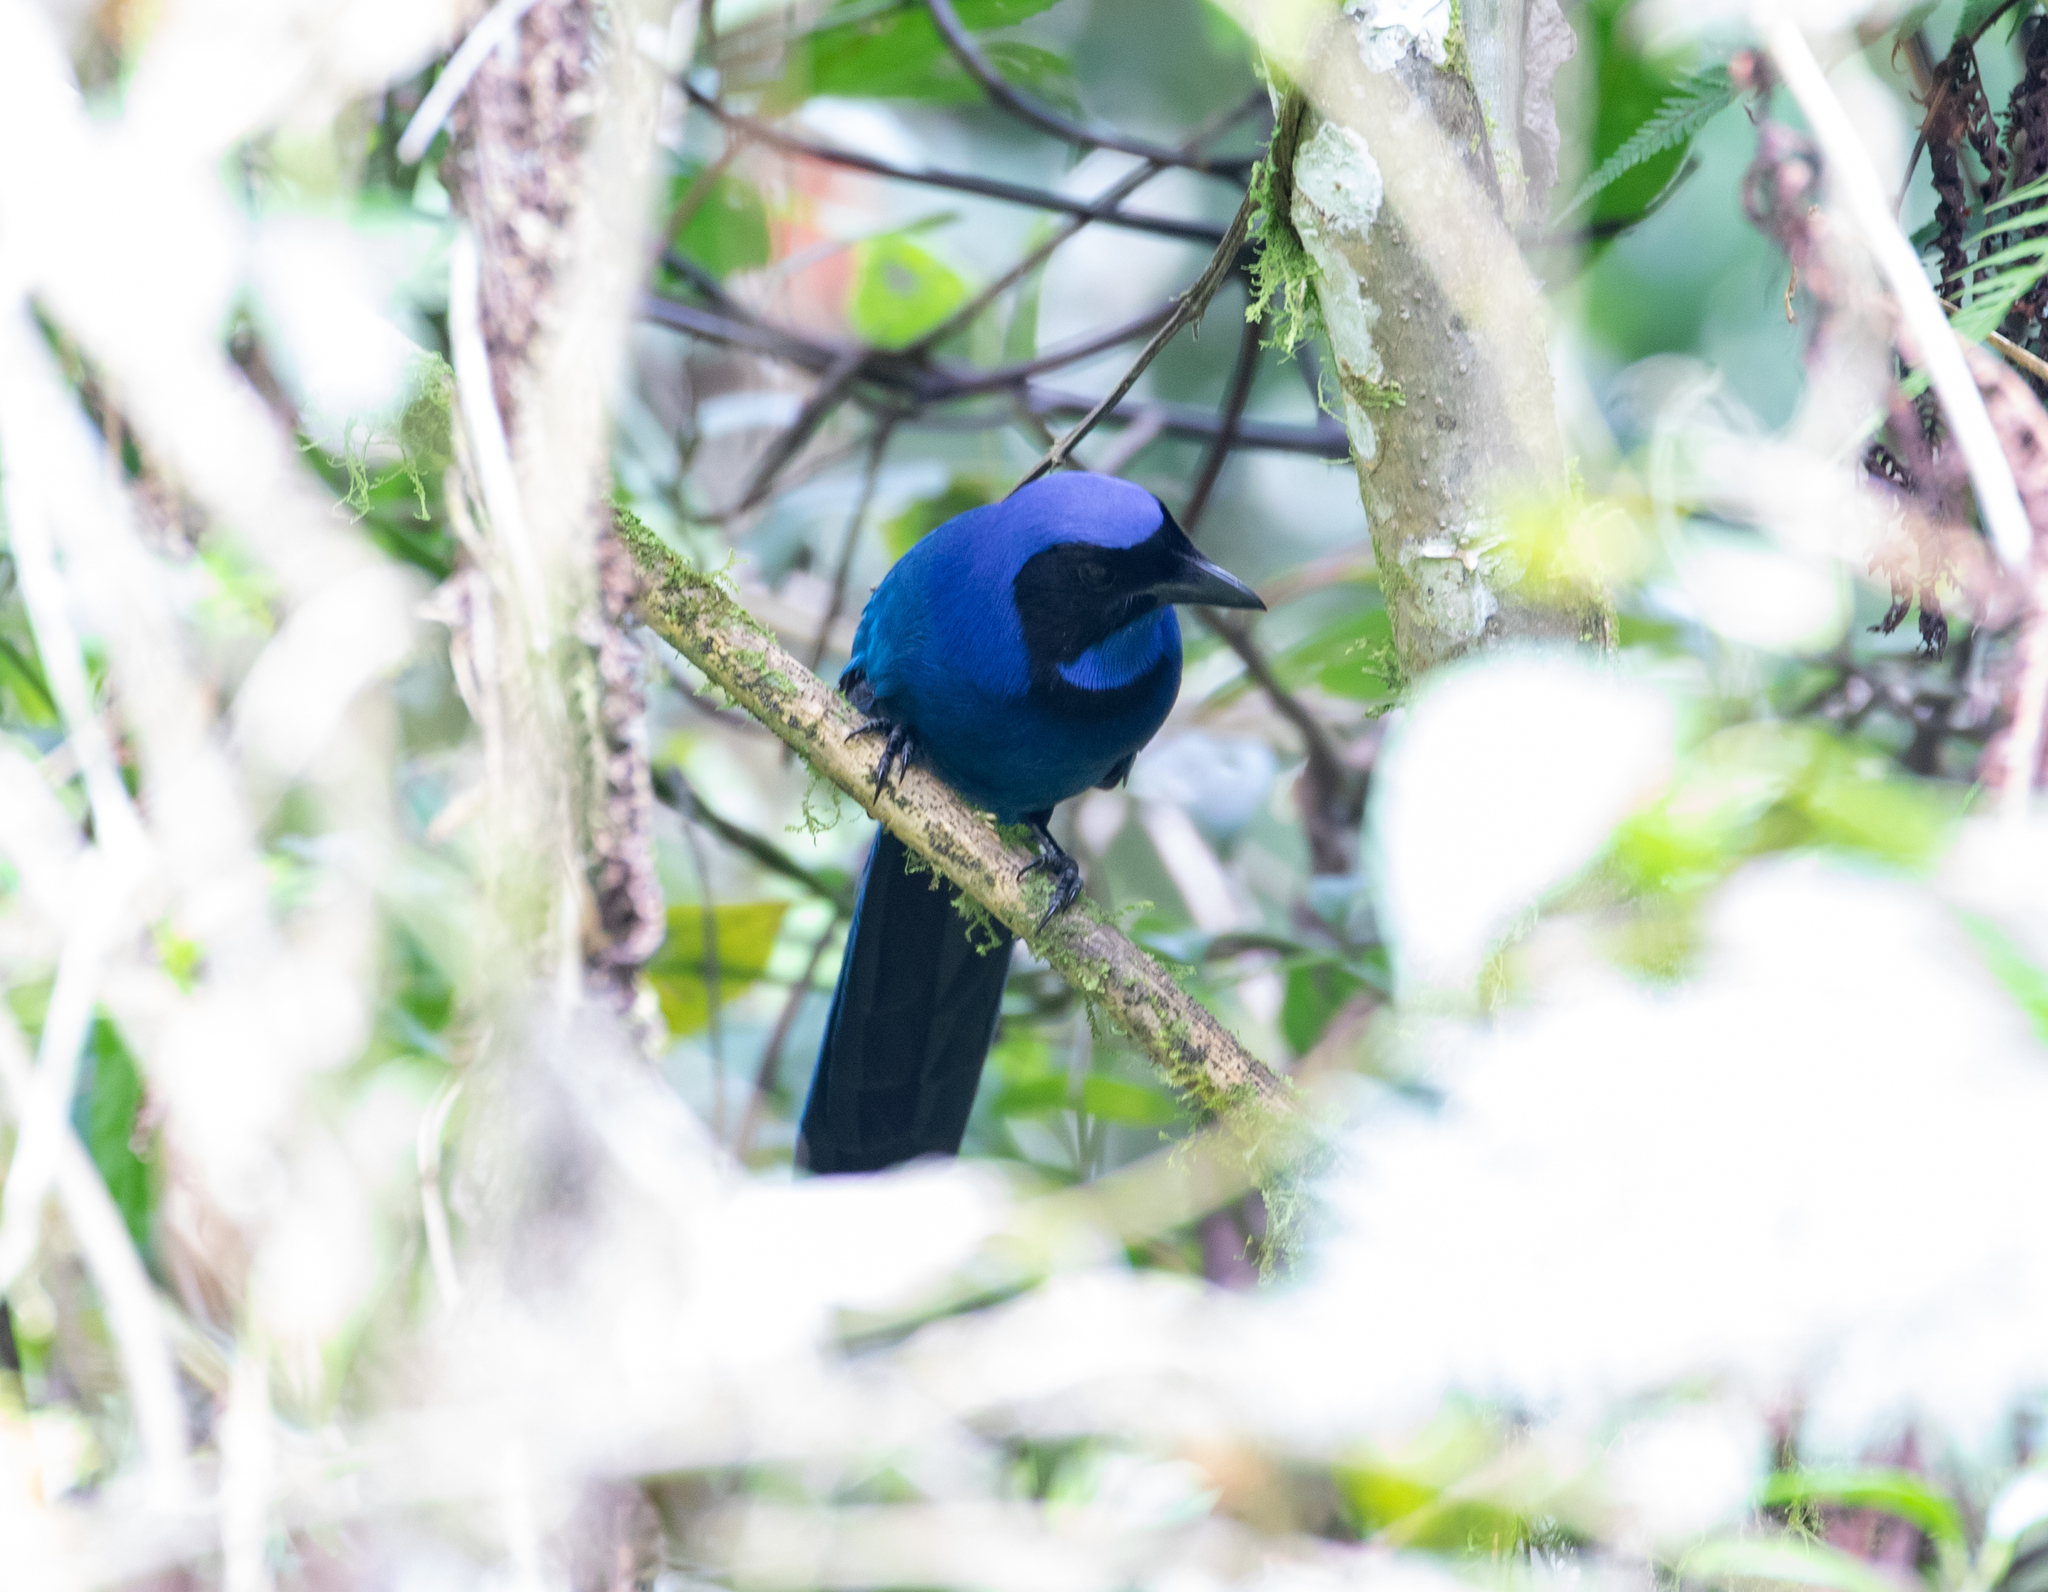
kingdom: Animalia
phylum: Chordata
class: Aves
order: Passeriformes
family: Corvidae
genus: Cyanolyca
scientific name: Cyanolyca armillata
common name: Black-collared jay
